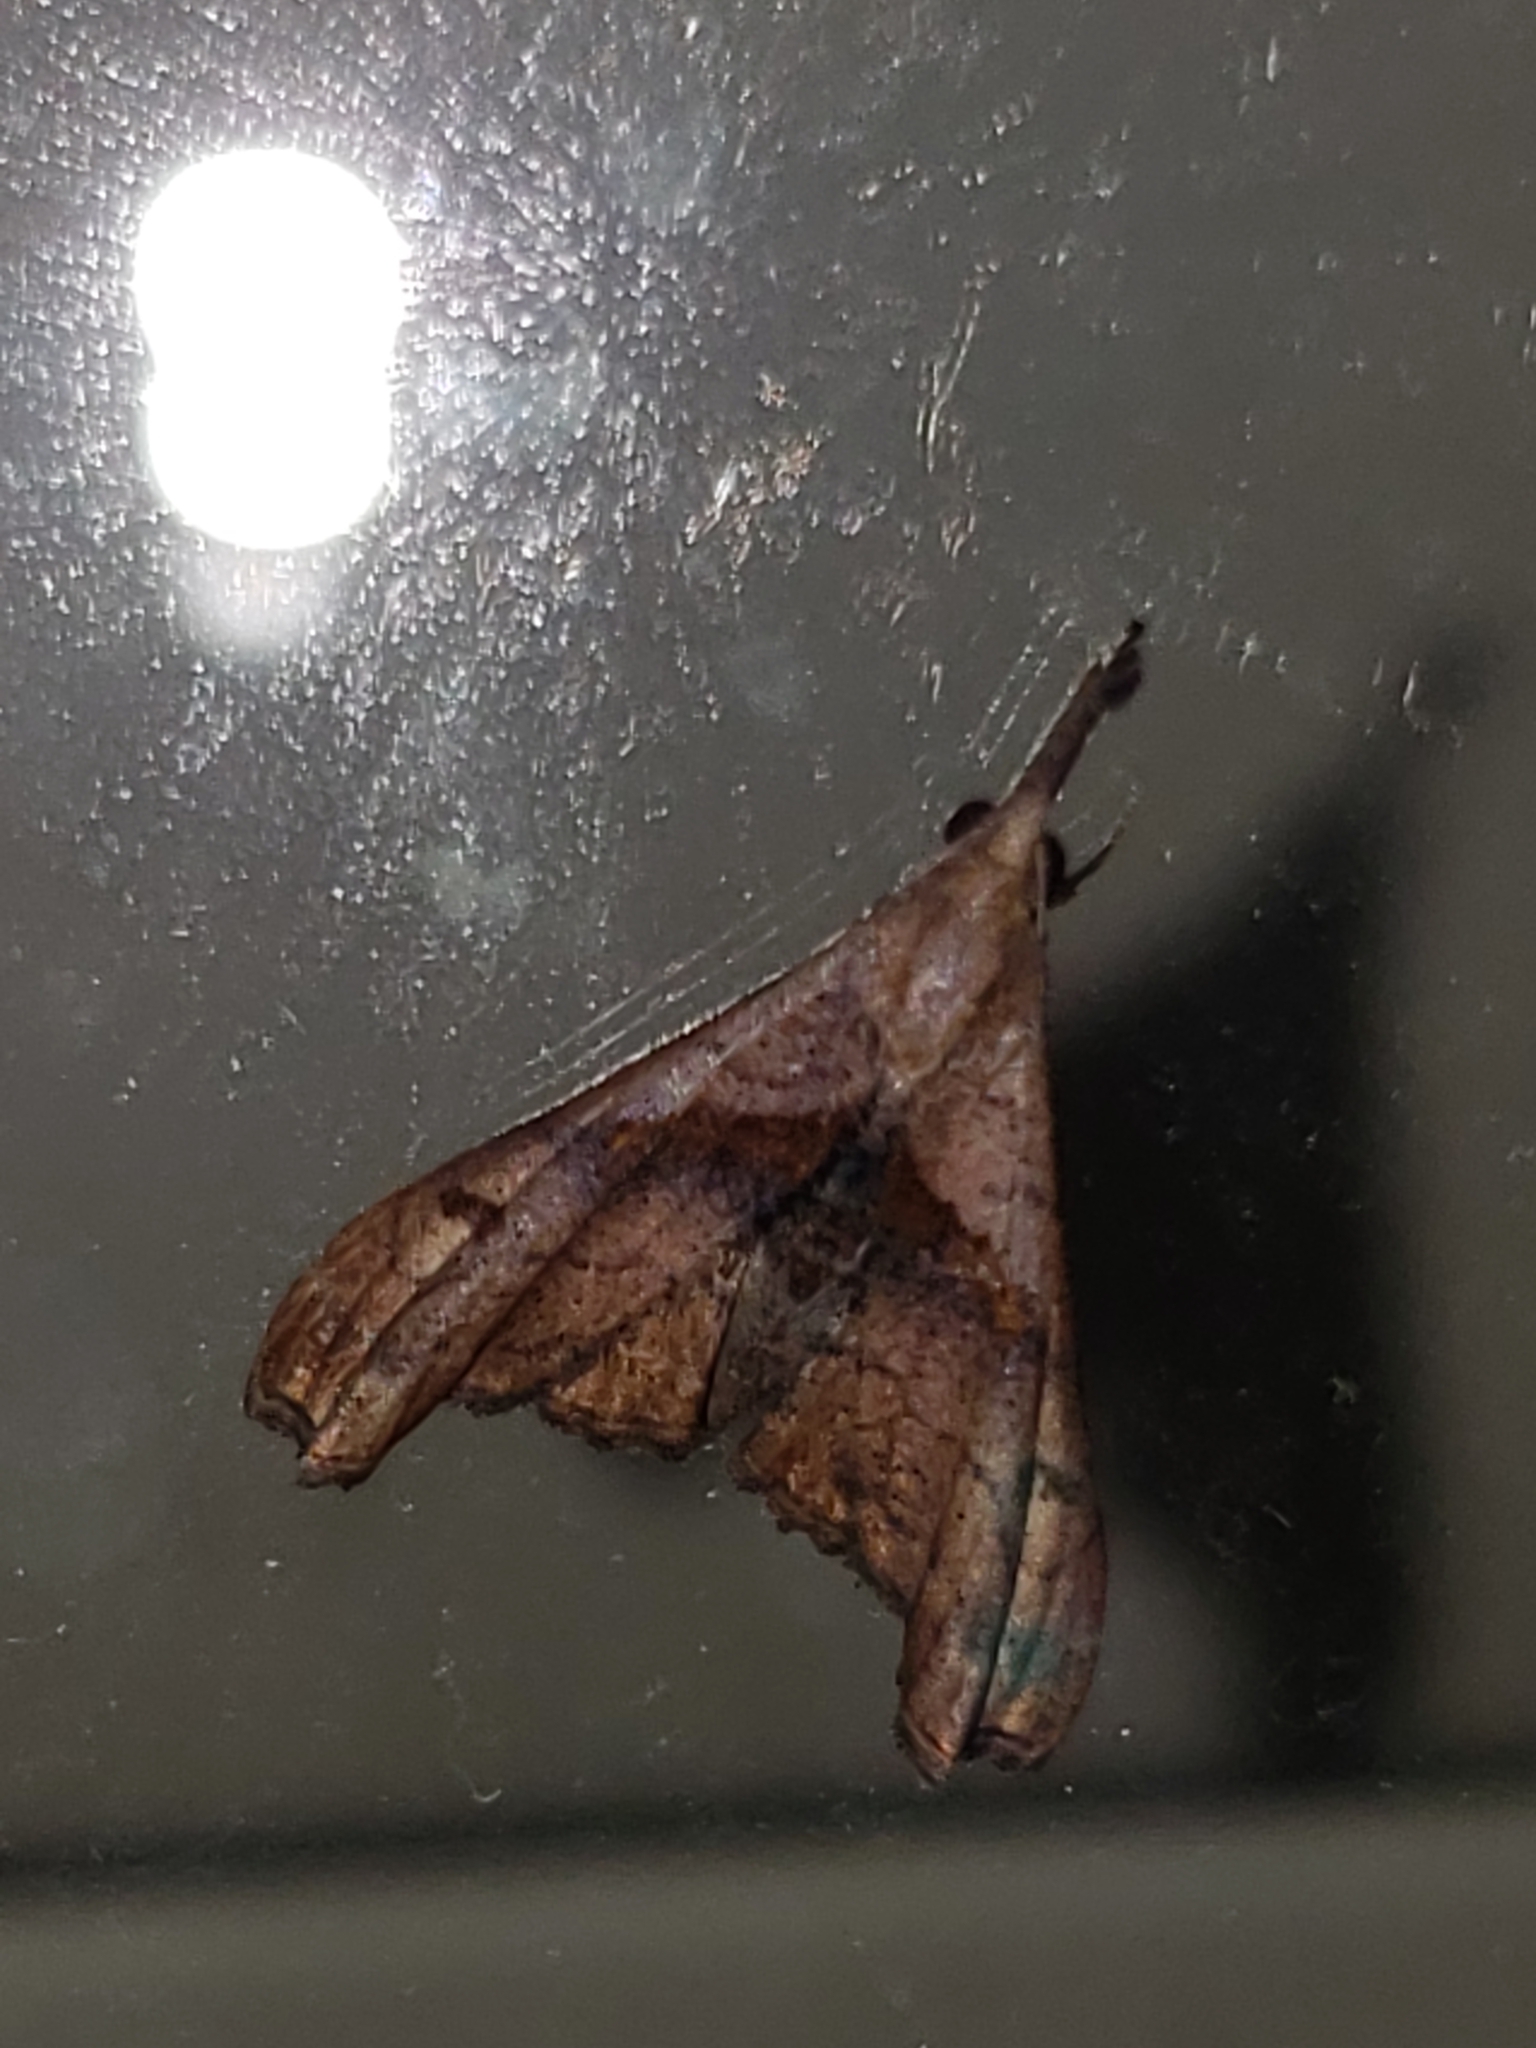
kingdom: Animalia
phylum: Arthropoda
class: Insecta
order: Lepidoptera
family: Erebidae
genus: Palthis
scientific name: Palthis angulalis
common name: Dark-spotted palthis moth
